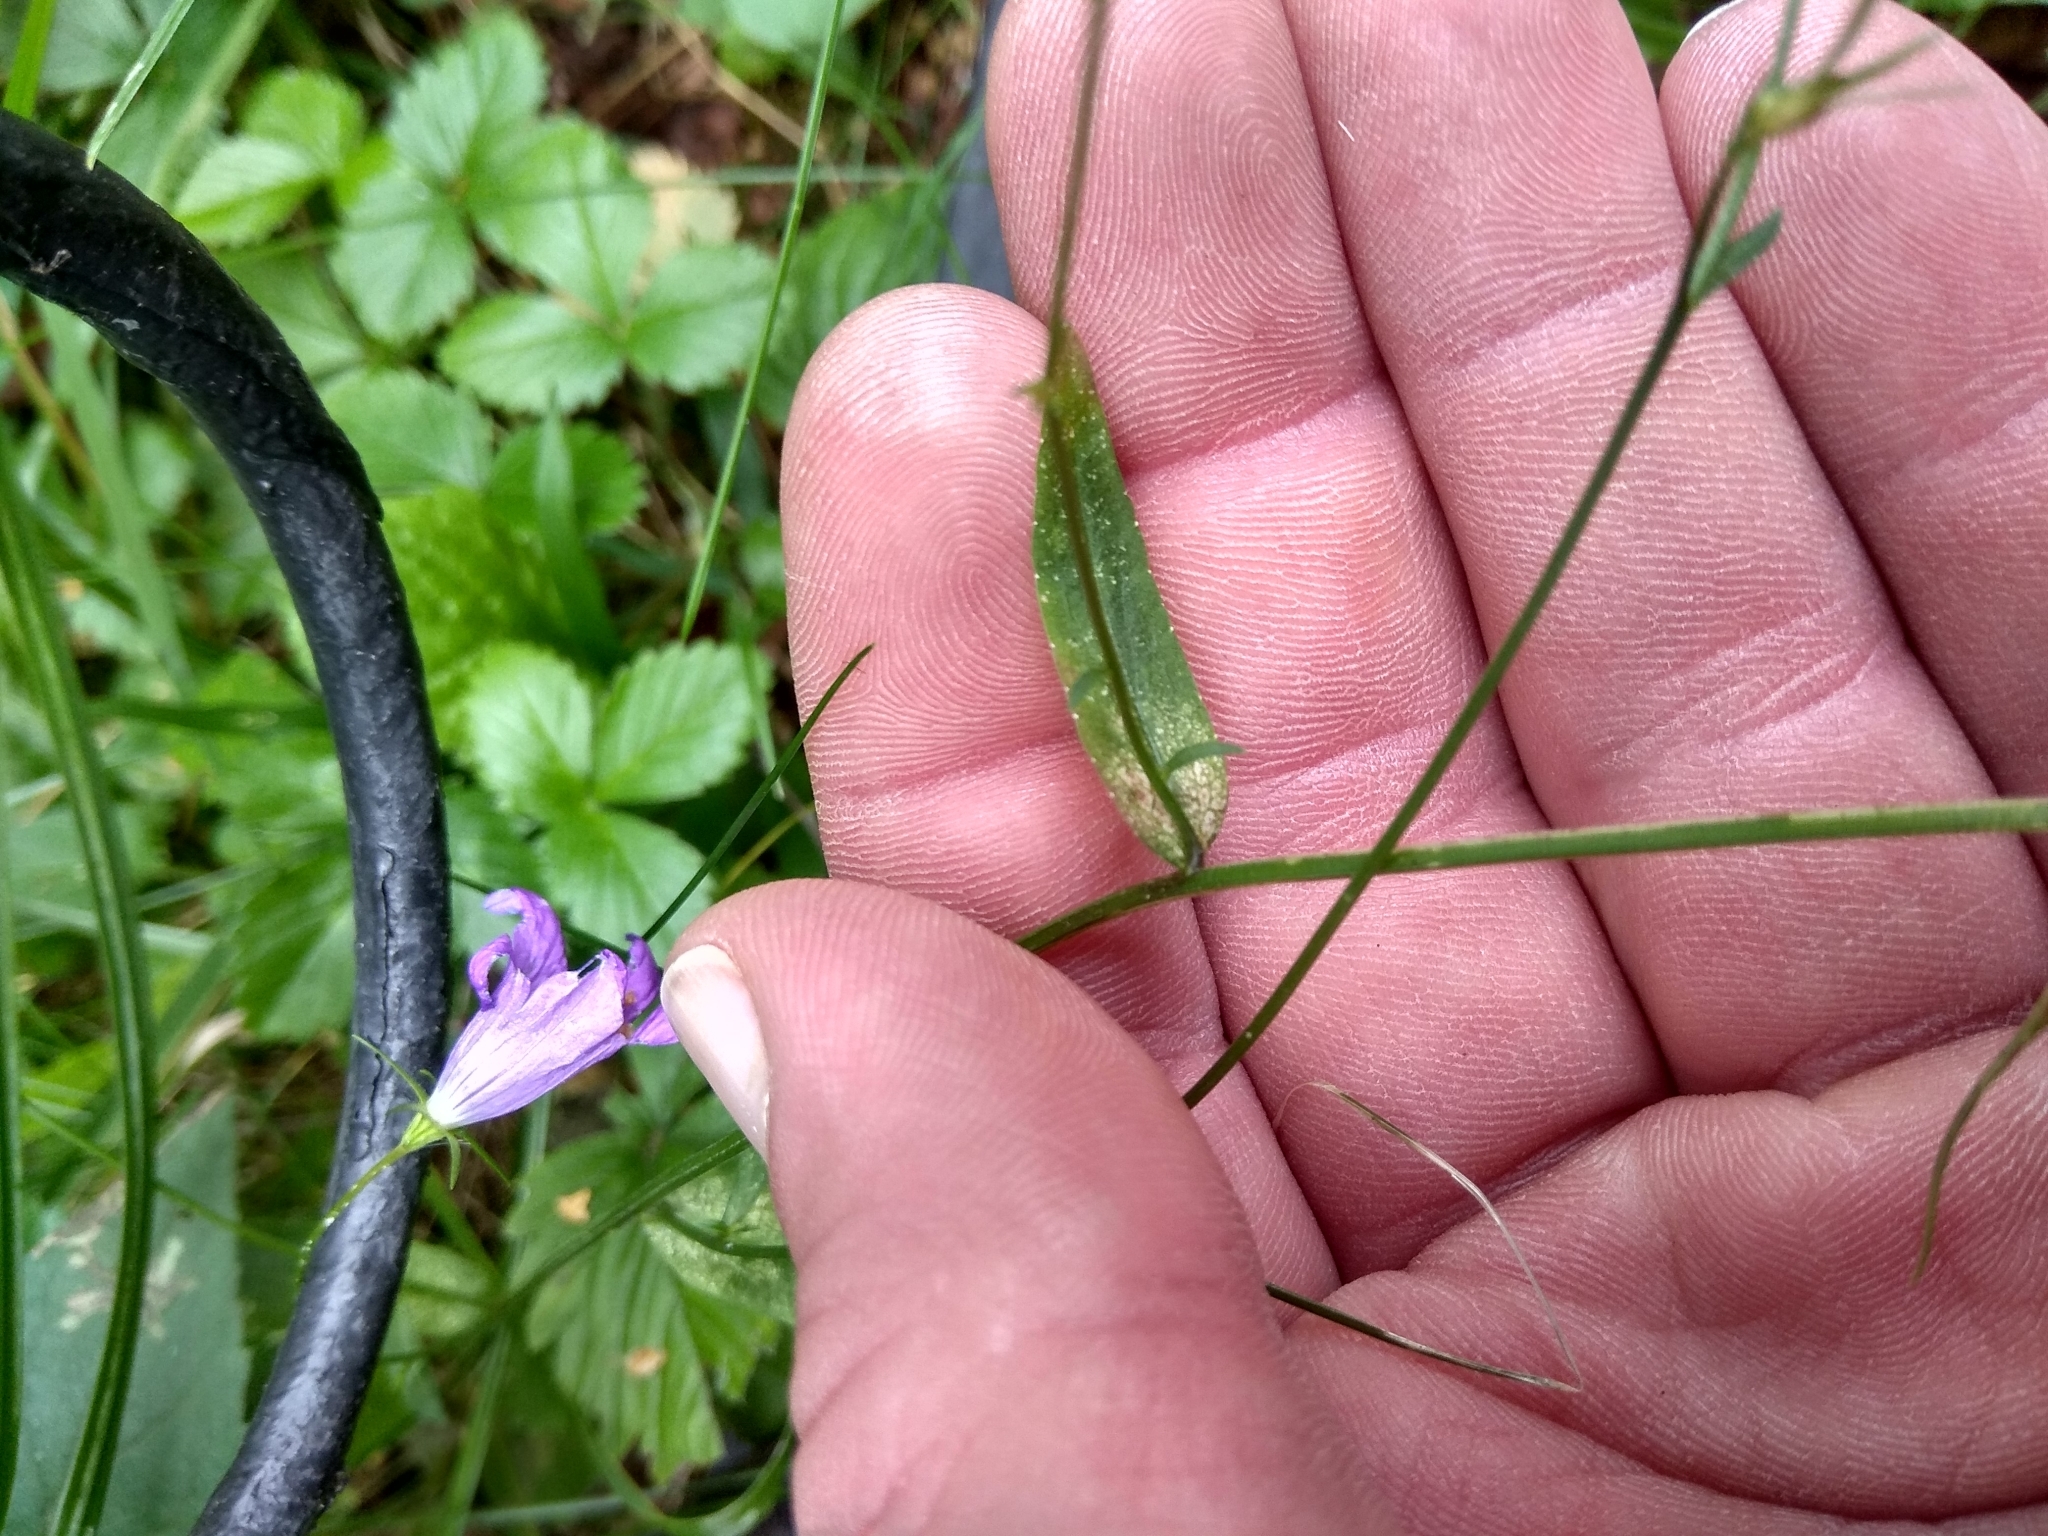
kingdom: Plantae
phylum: Tracheophyta
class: Magnoliopsida
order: Asterales
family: Campanulaceae
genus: Campanula
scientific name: Campanula patula
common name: Spreading bellflower
